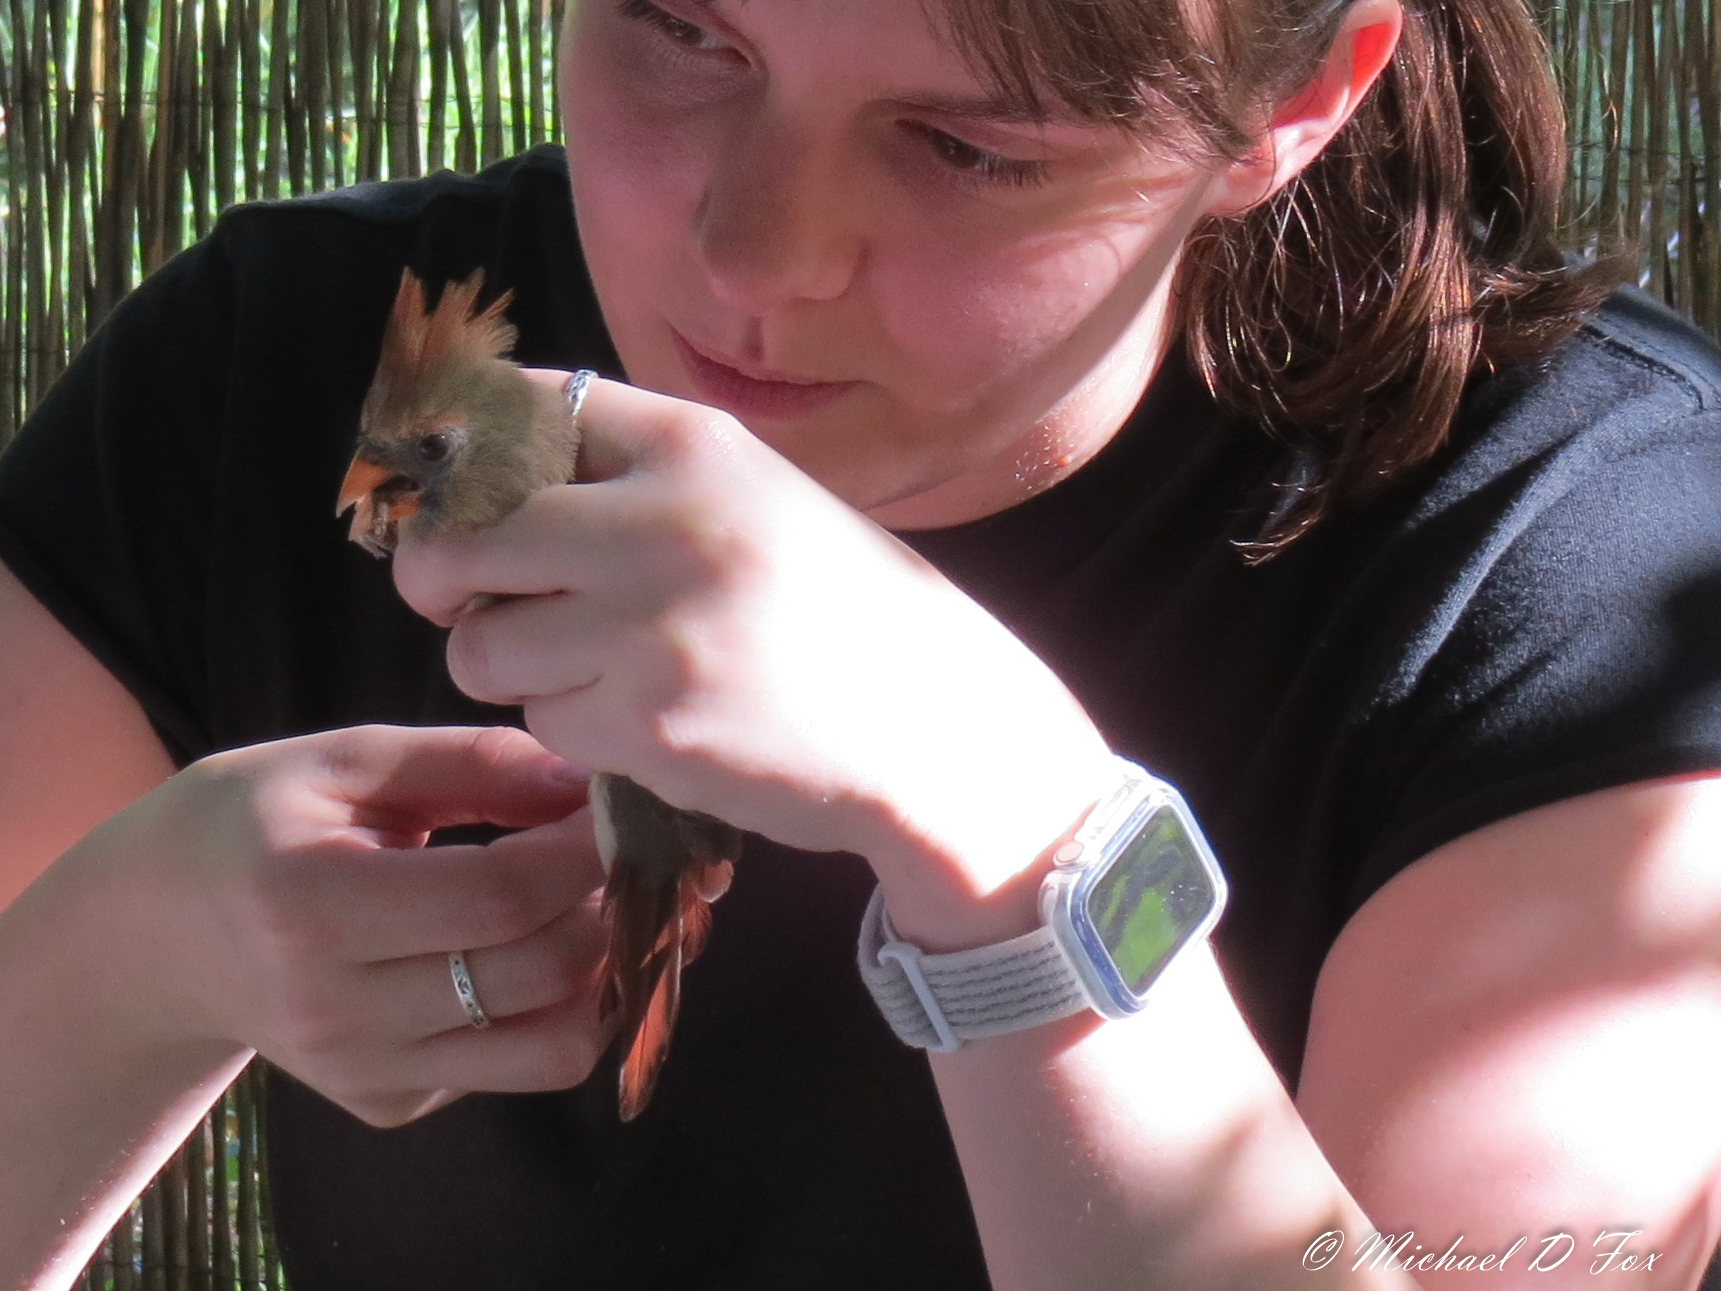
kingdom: Animalia
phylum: Chordata
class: Aves
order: Passeriformes
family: Cardinalidae
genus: Cardinalis
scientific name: Cardinalis cardinalis
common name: Northern cardinal
